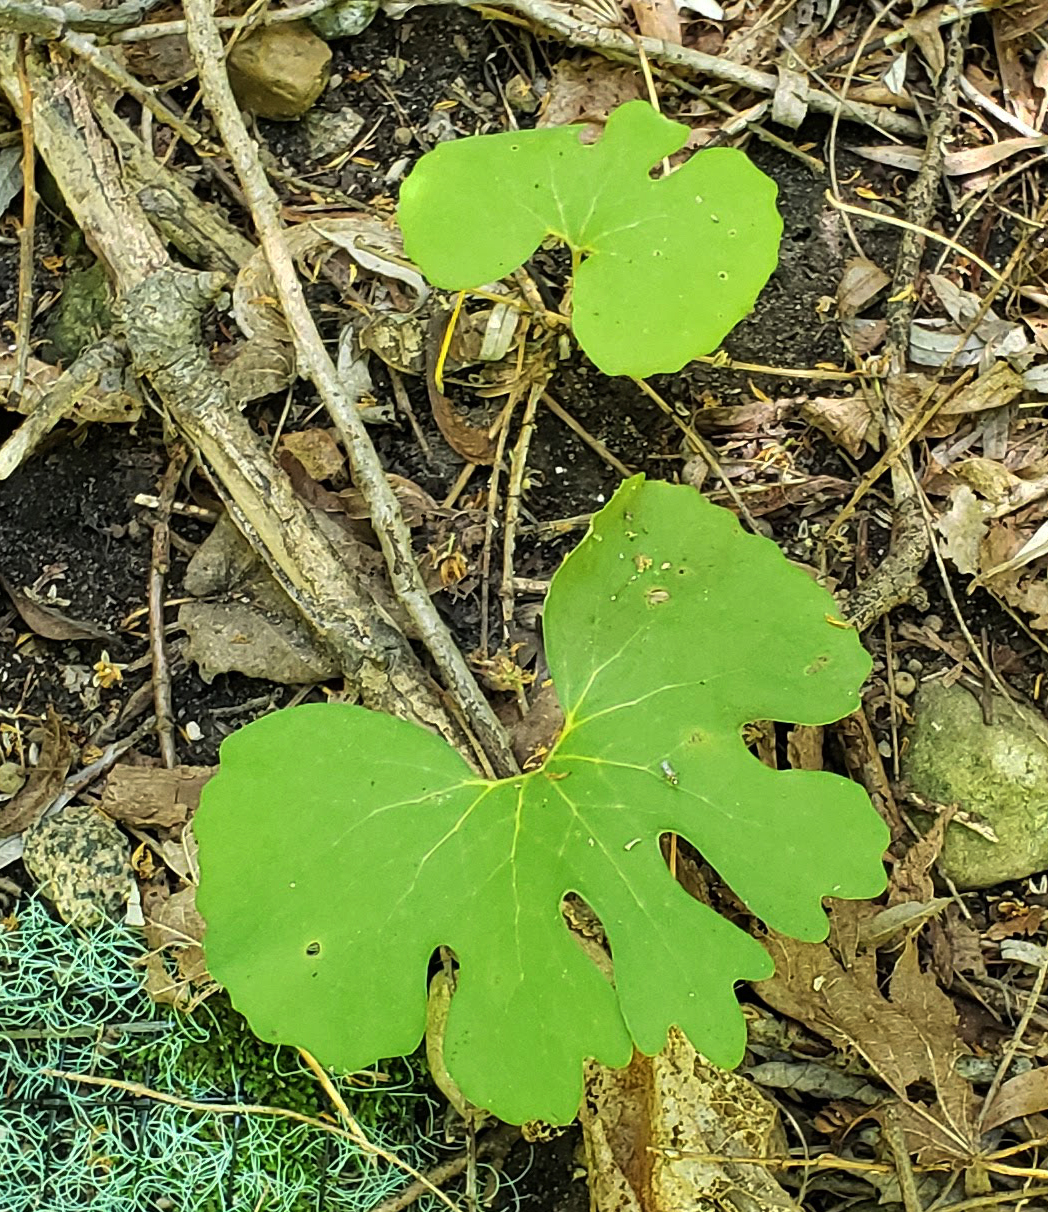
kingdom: Plantae
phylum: Tracheophyta
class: Magnoliopsida
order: Ranunculales
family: Papaveraceae
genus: Sanguinaria
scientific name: Sanguinaria canadensis
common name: Bloodroot
